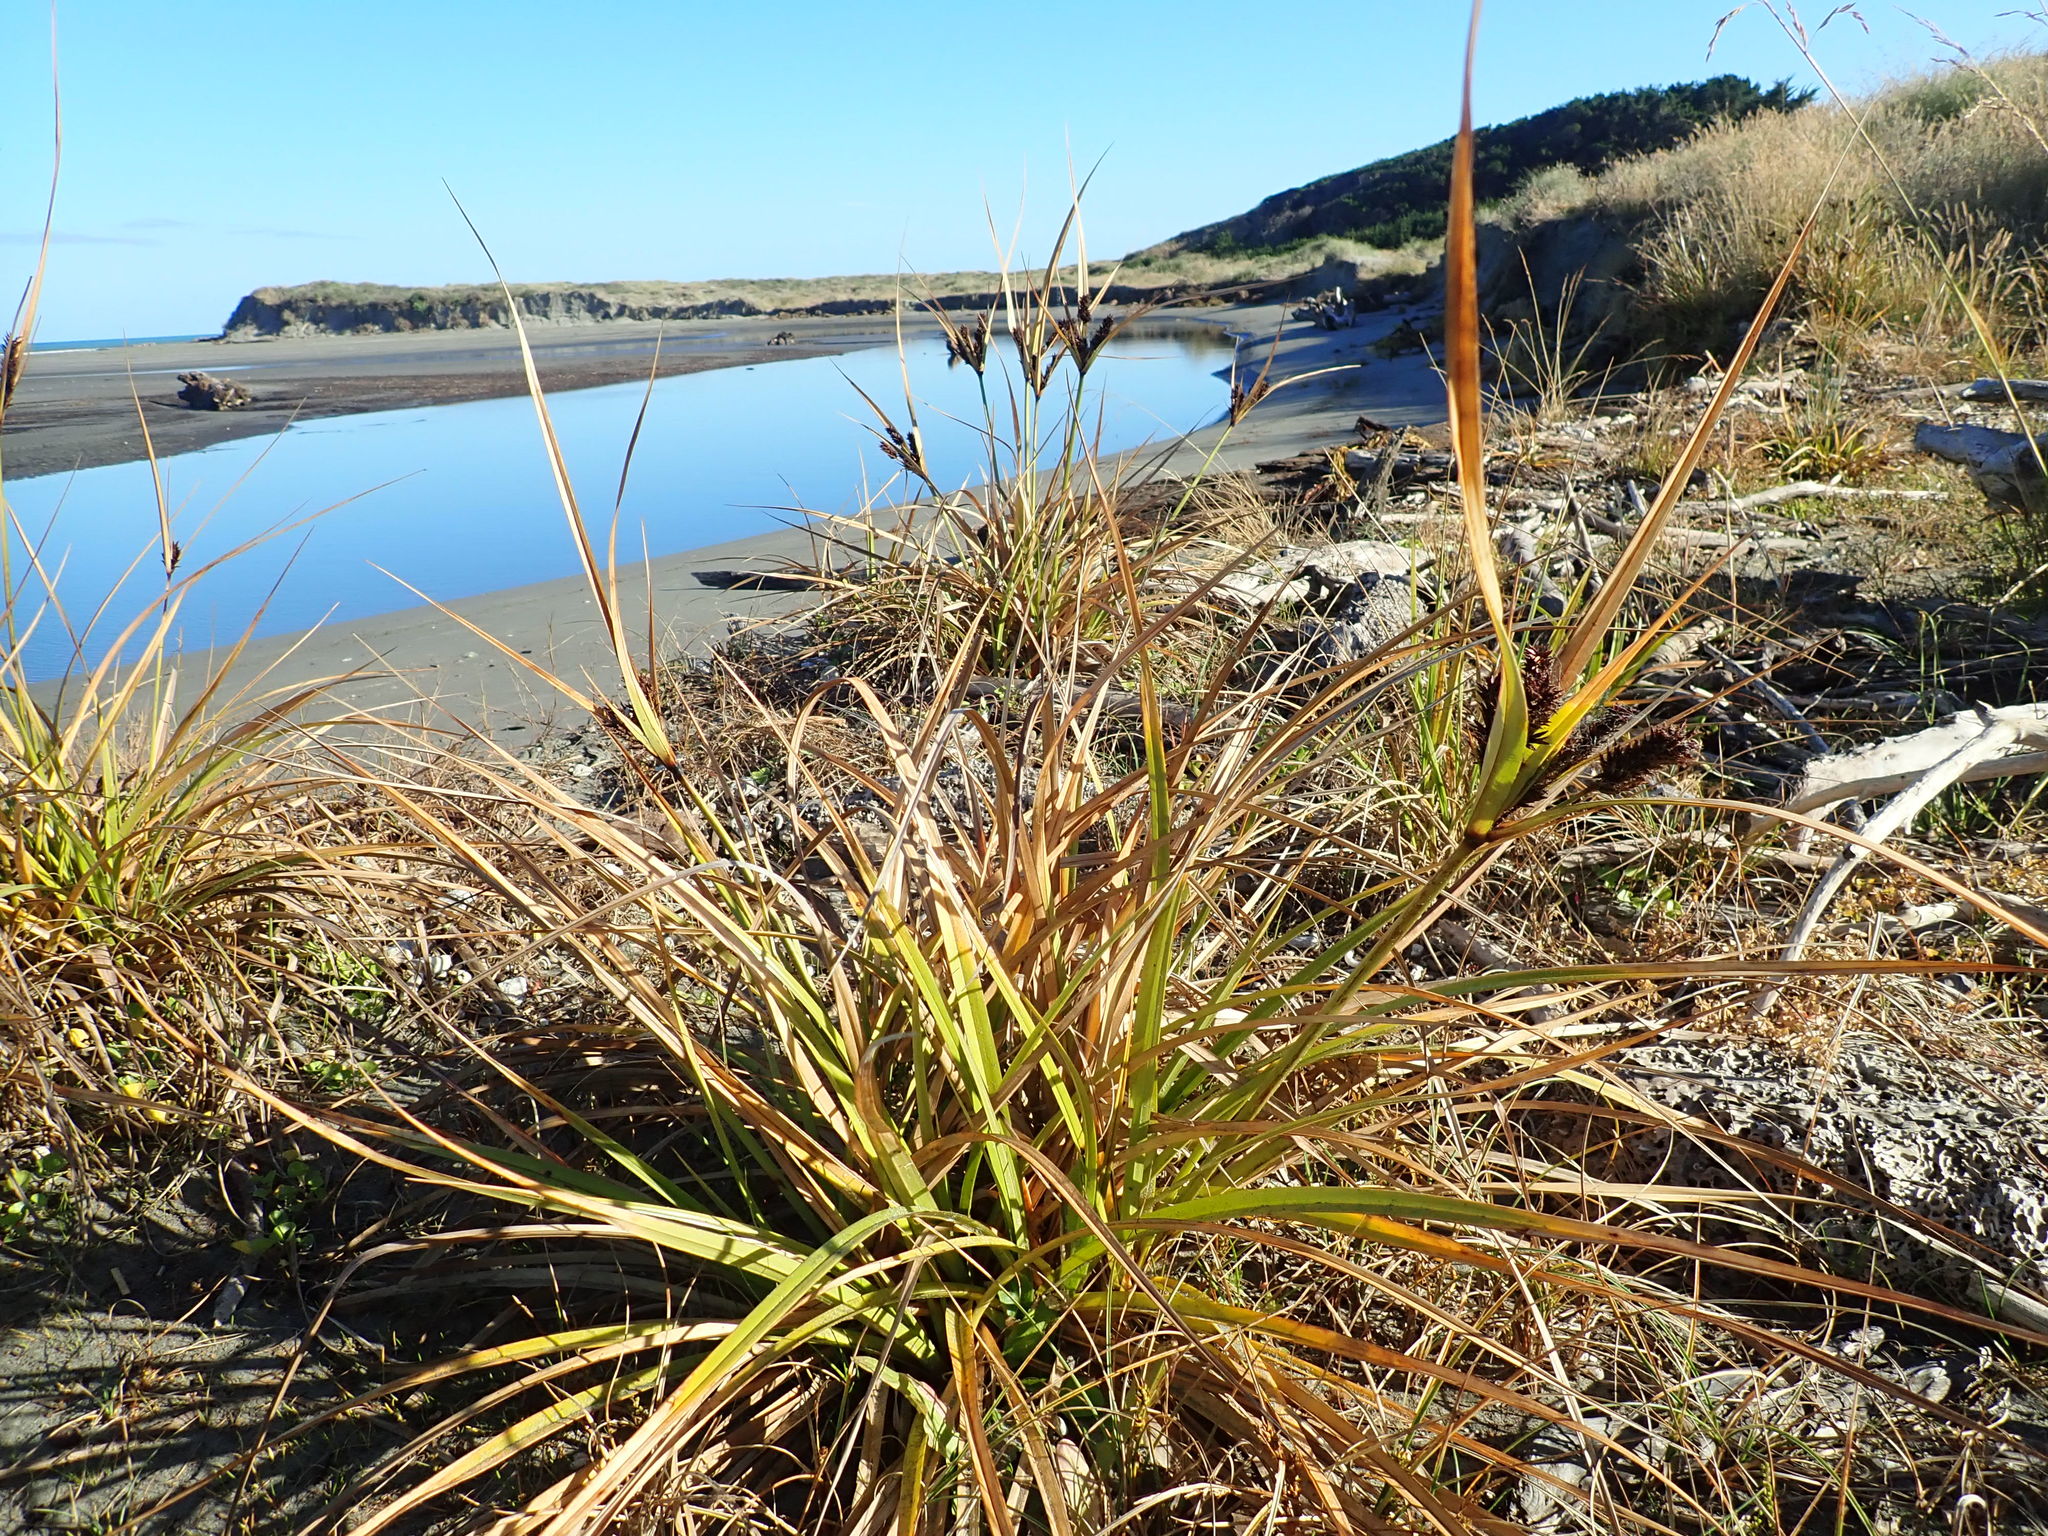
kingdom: Plantae
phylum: Tracheophyta
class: Liliopsida
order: Poales
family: Cyperaceae
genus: Cyperus
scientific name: Cyperus ustulatus
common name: Giant umbrella-sedge
